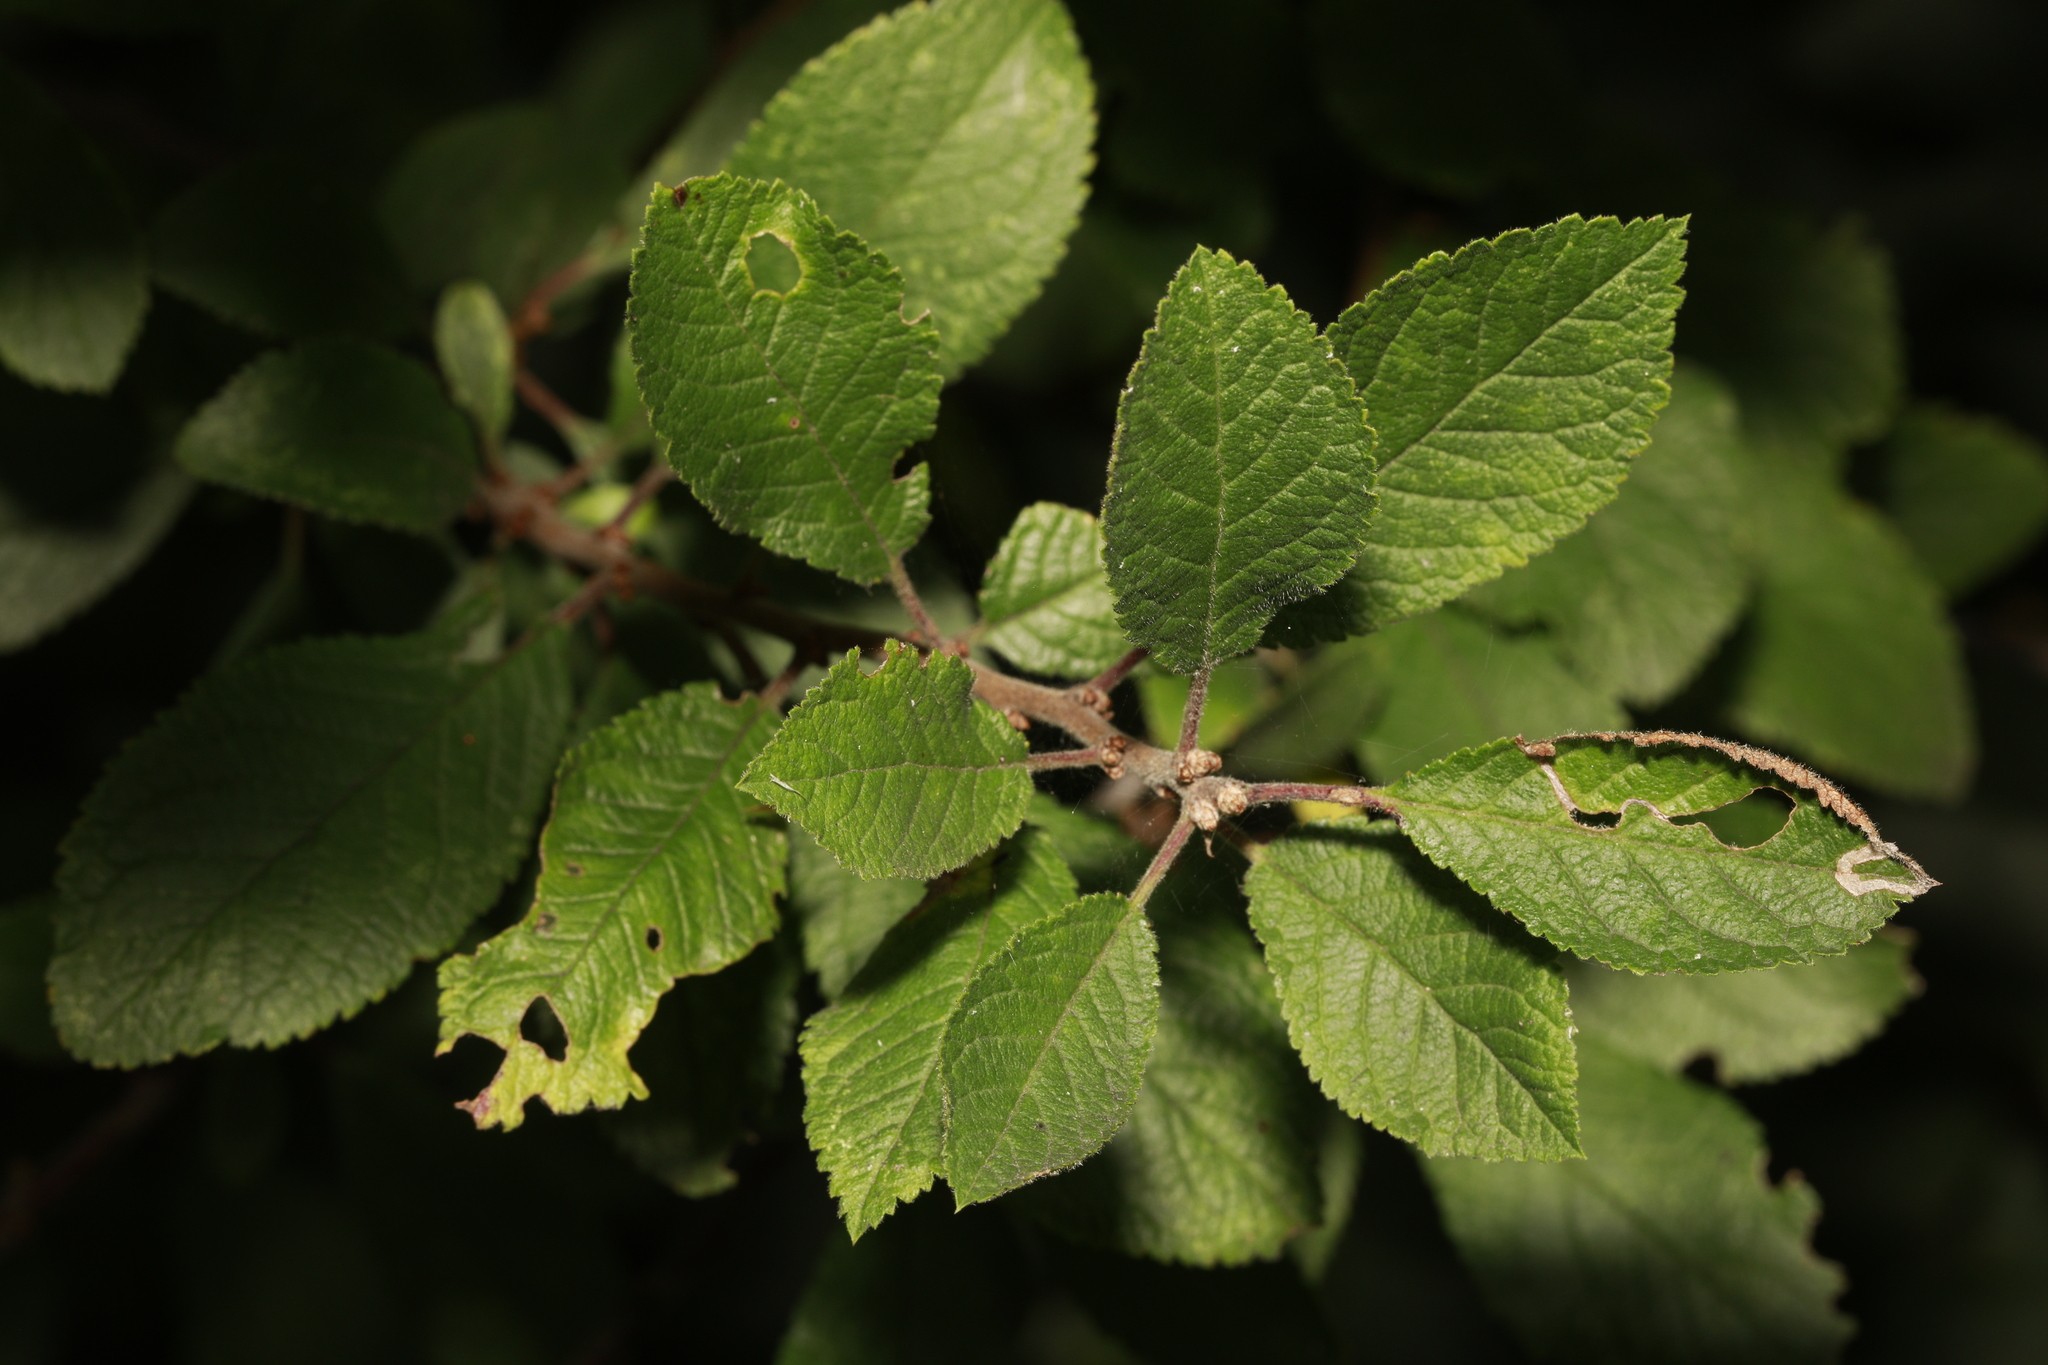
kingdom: Plantae
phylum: Tracheophyta
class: Magnoliopsida
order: Rosales
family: Rosaceae
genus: Prunus
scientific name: Prunus spinosa
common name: Blackthorn
